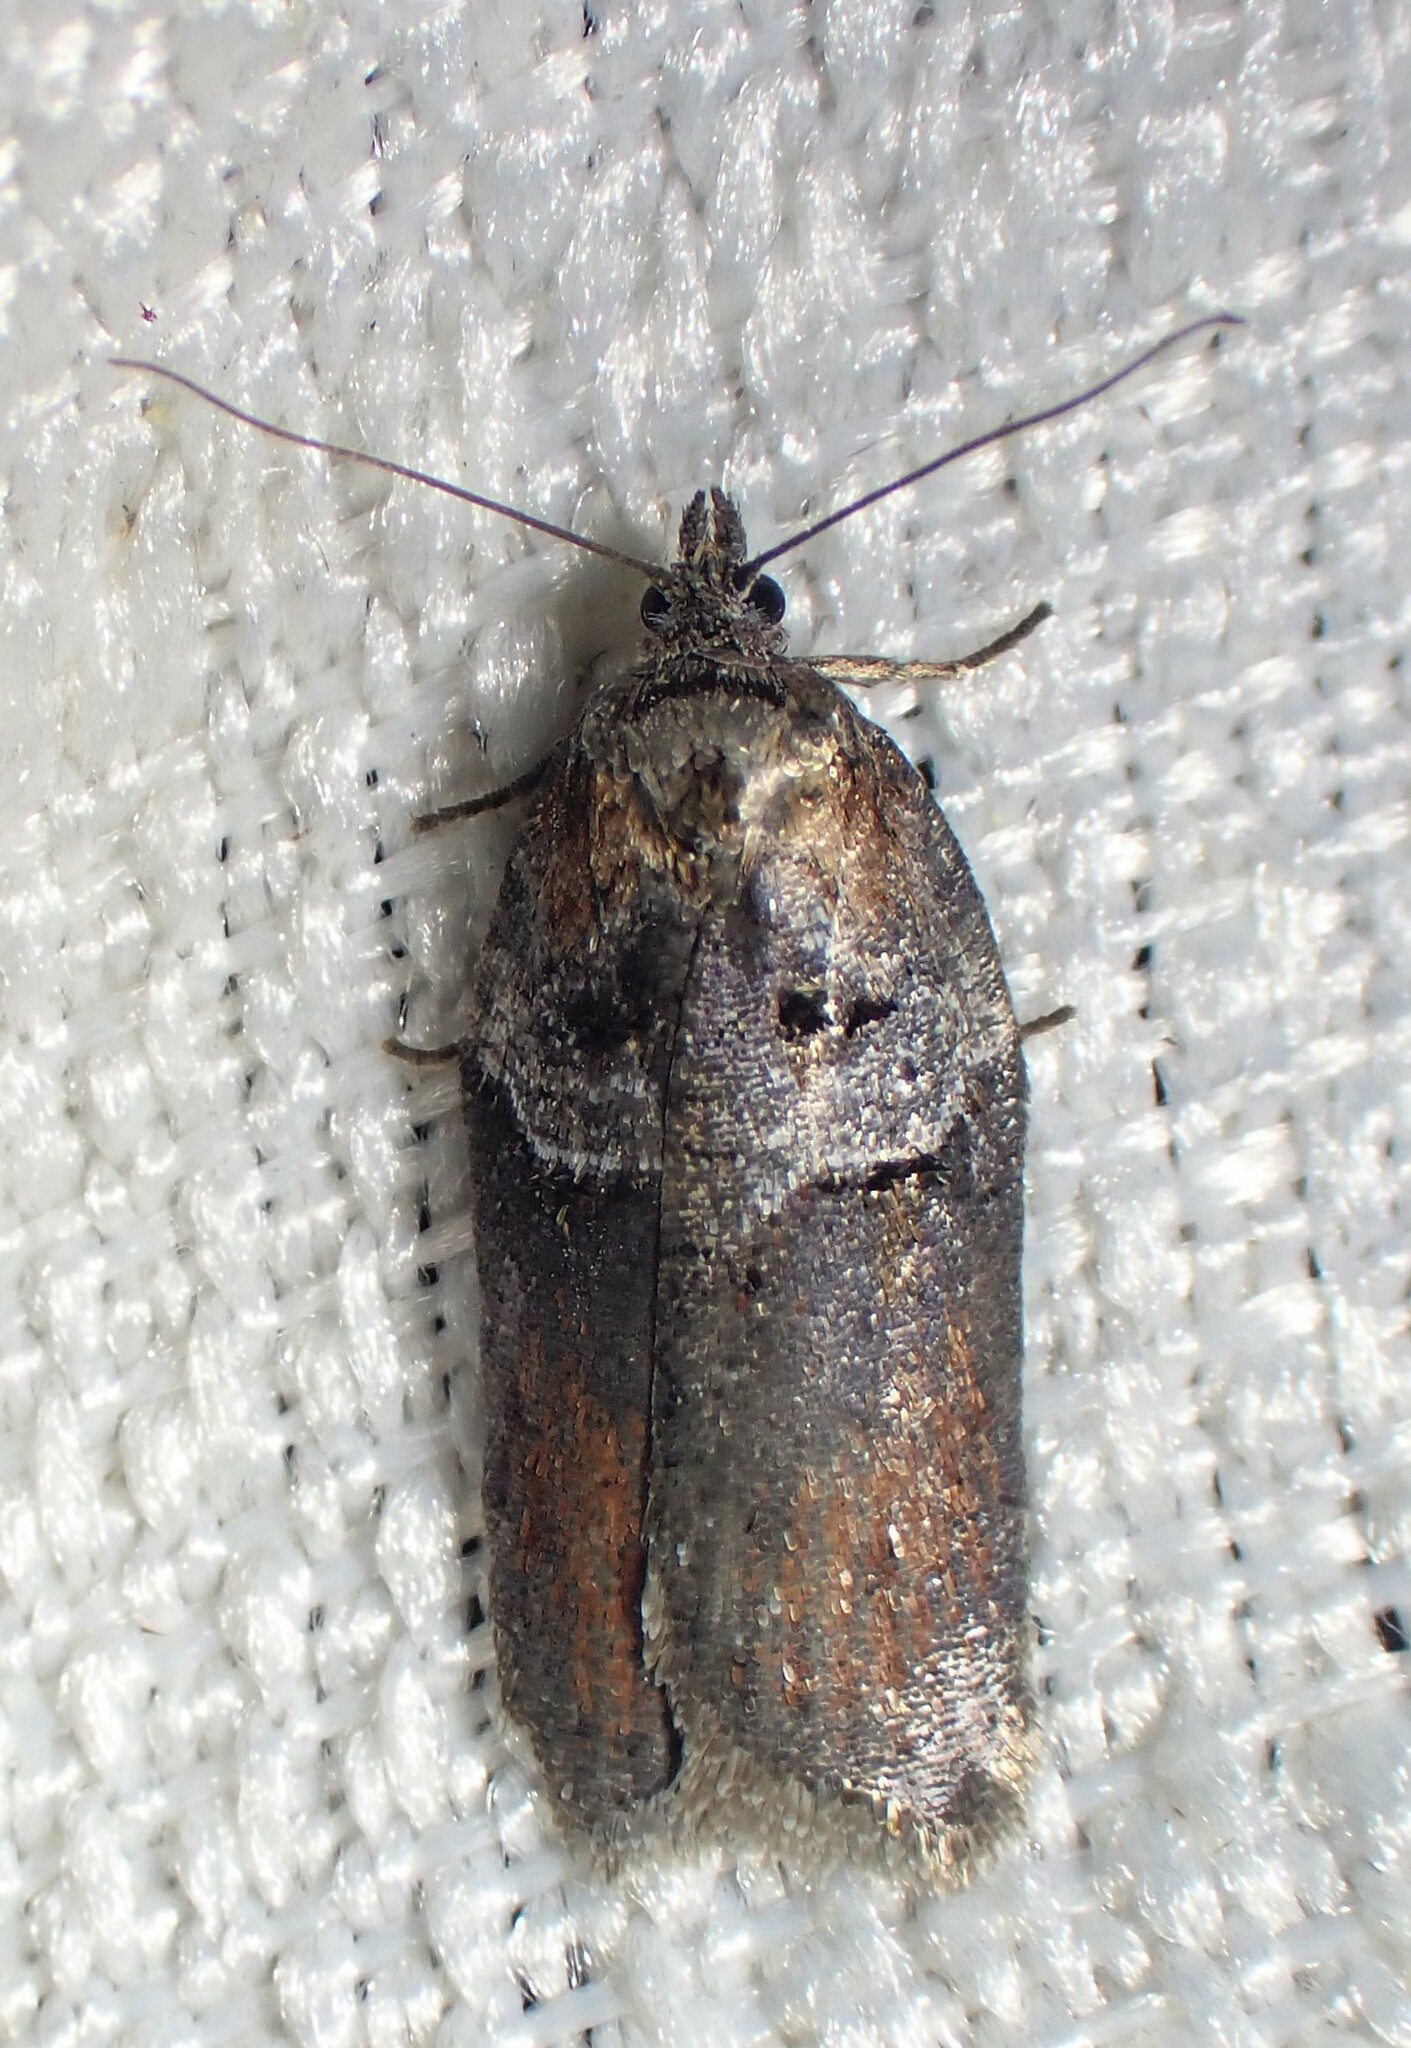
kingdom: Animalia
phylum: Arthropoda
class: Insecta
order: Lepidoptera
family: Tortricidae
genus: Acleris
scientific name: Acleris celiana
